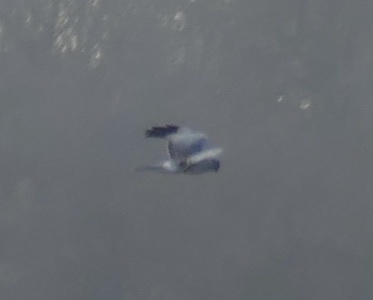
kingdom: Animalia
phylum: Chordata
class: Aves
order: Accipitriformes
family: Accipitridae
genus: Circus
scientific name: Circus cyaneus
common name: Hen harrier
